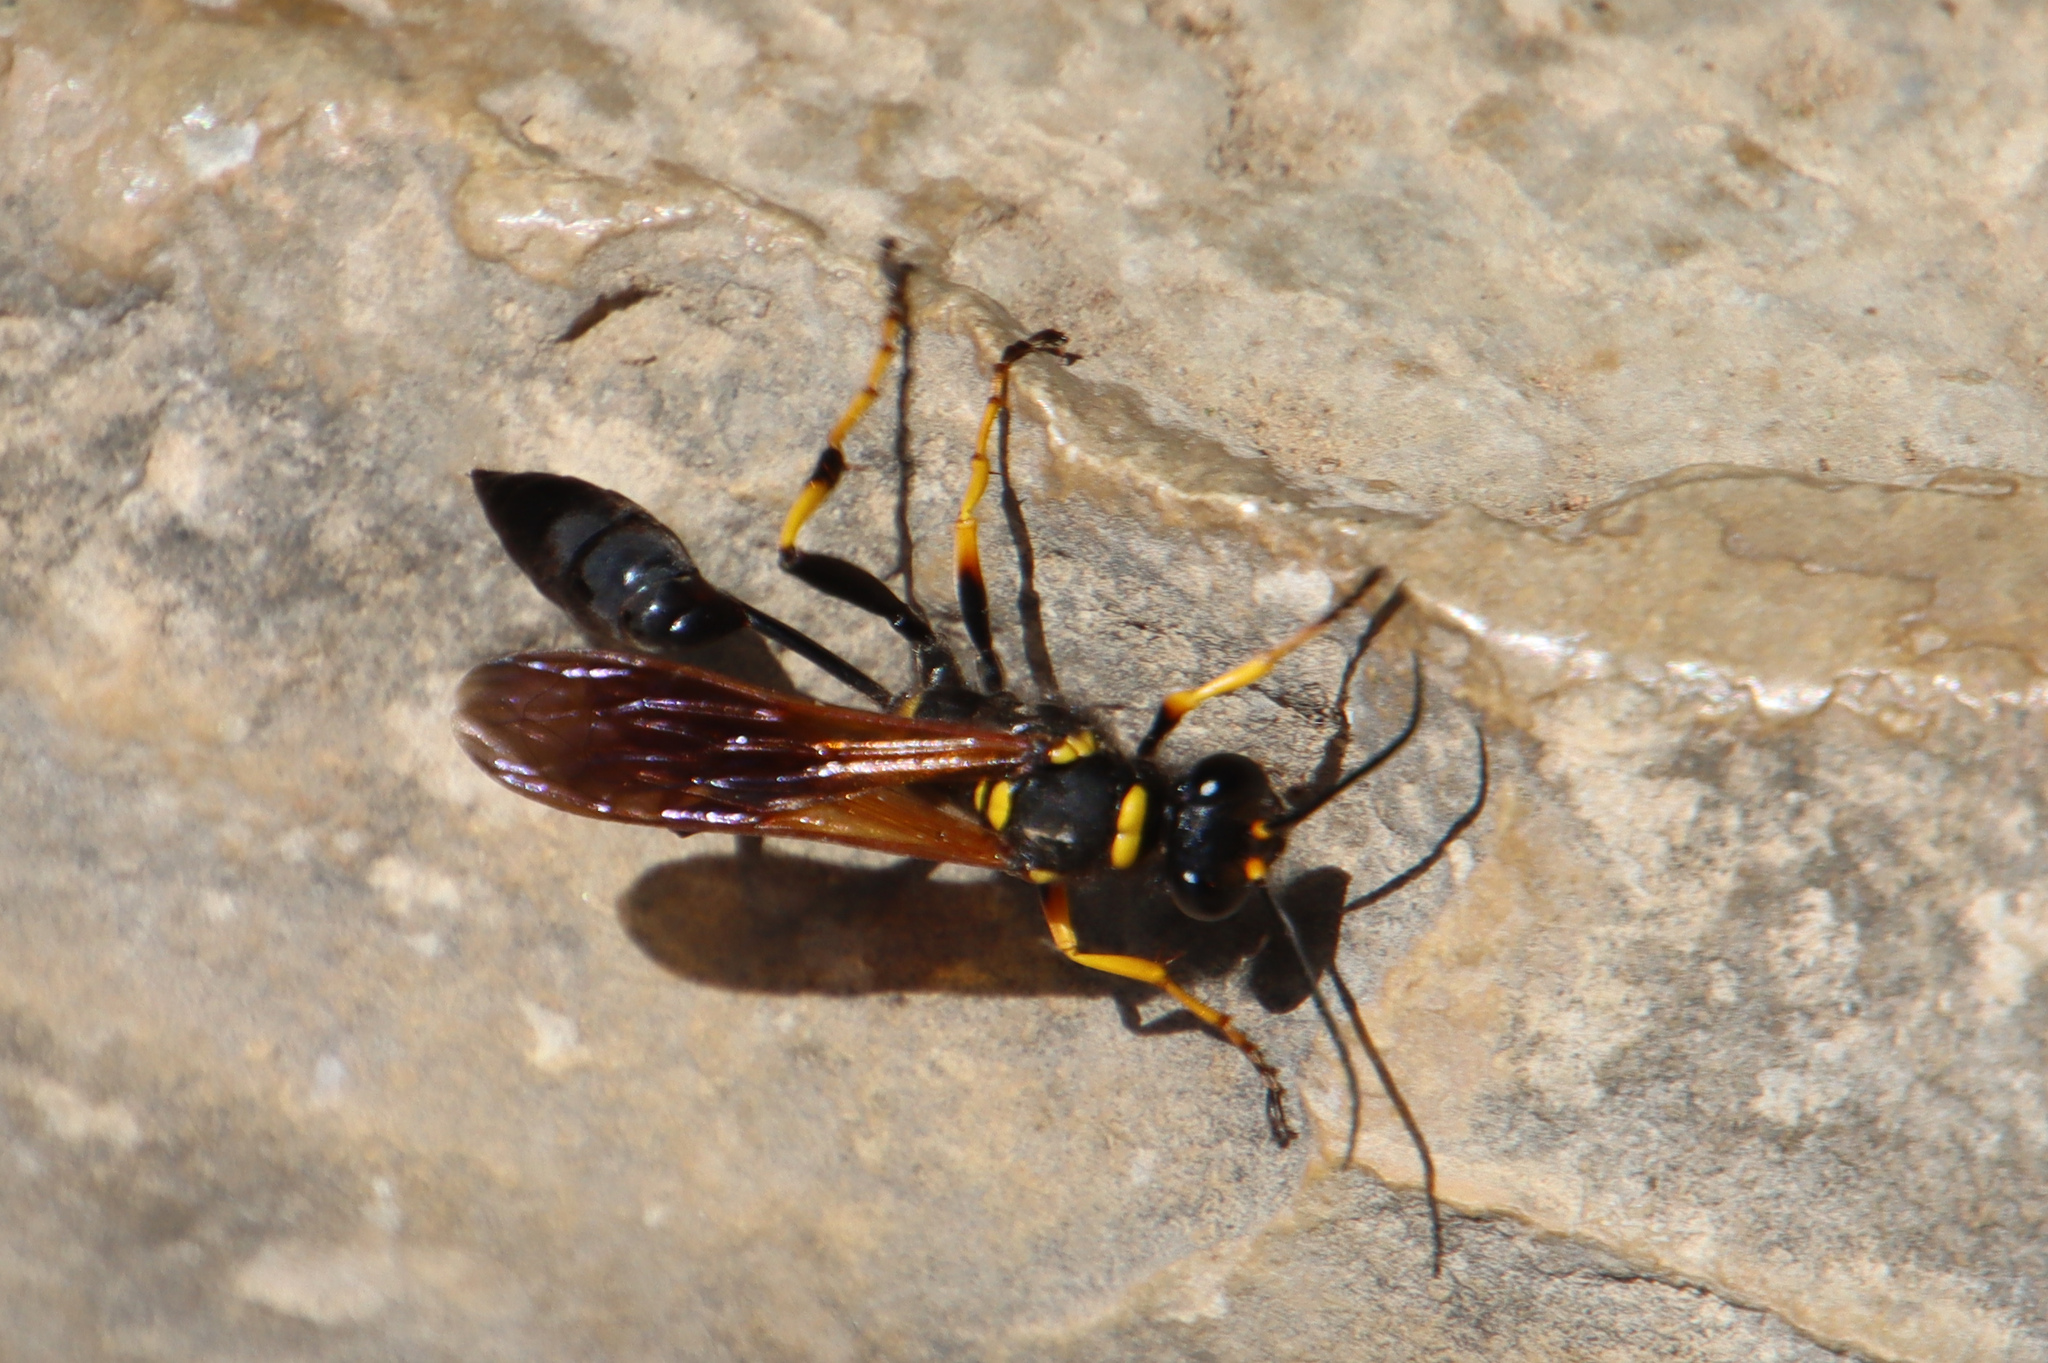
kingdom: Animalia
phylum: Arthropoda
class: Insecta
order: Hymenoptera
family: Sphecidae
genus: Sceliphron
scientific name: Sceliphron caementarium
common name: Mud dauber
